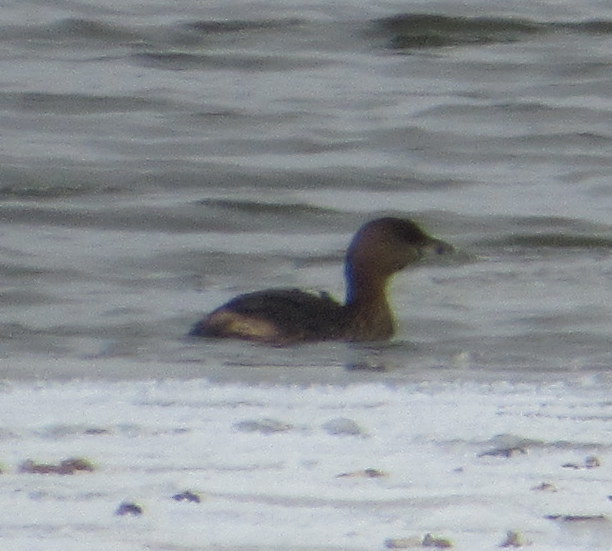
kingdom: Animalia
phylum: Chordata
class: Aves
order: Podicipediformes
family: Podicipedidae
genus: Podilymbus
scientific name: Podilymbus podiceps
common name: Pied-billed grebe
